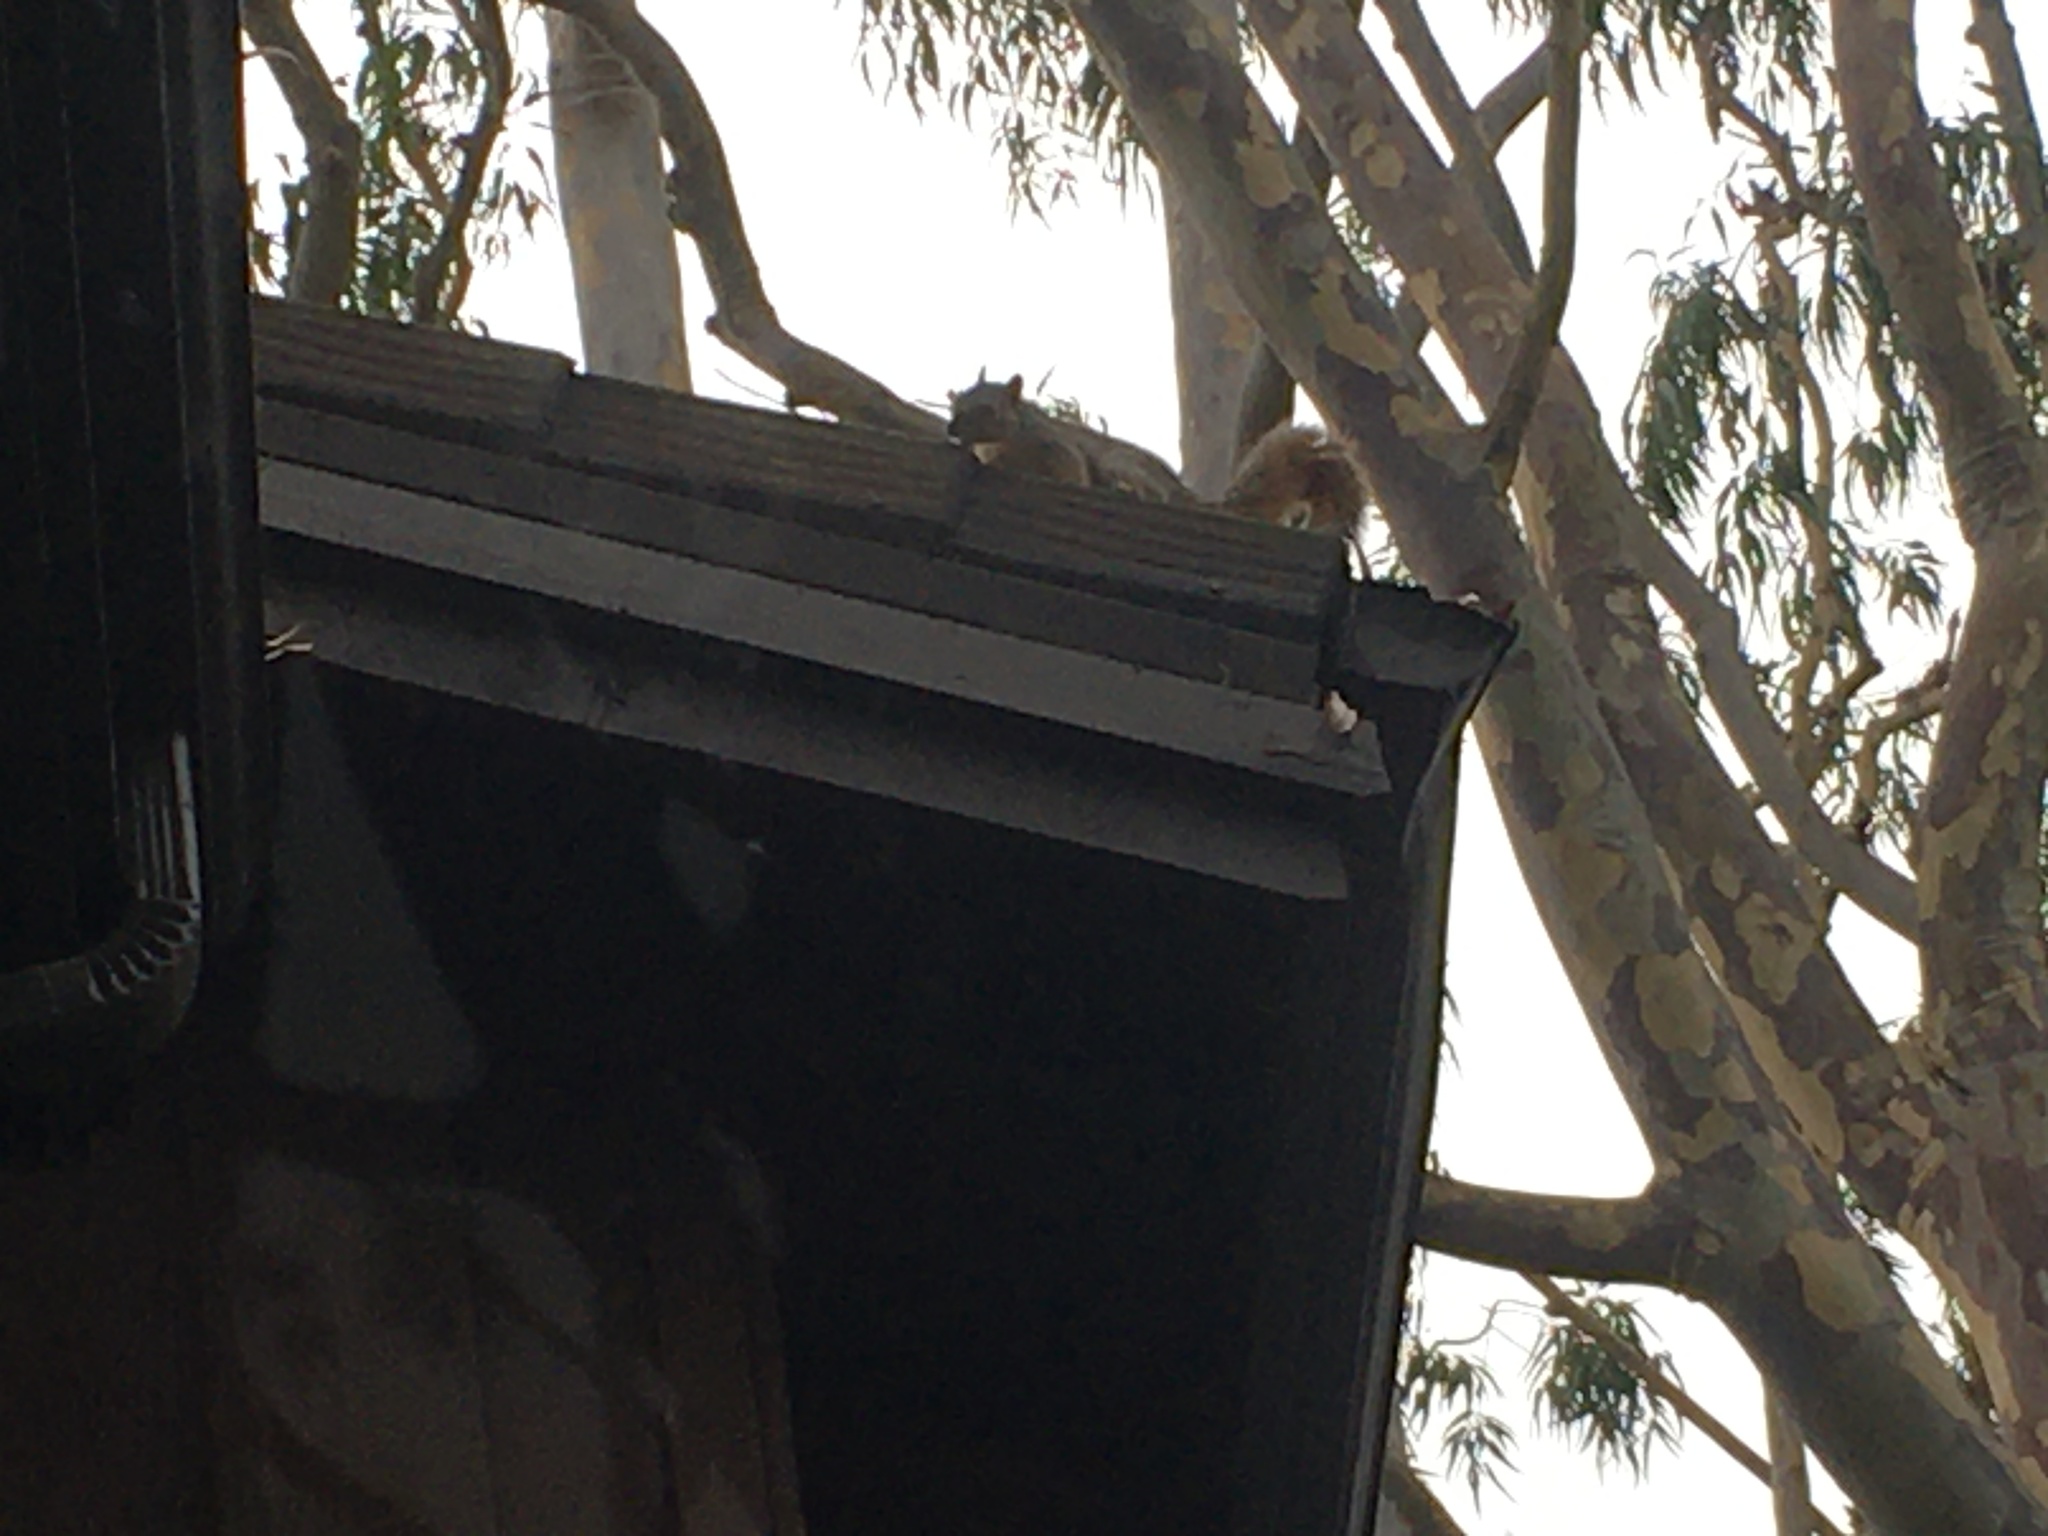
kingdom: Animalia
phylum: Chordata
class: Mammalia
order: Rodentia
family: Sciuridae
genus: Sciurus
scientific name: Sciurus niger
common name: Fox squirrel
